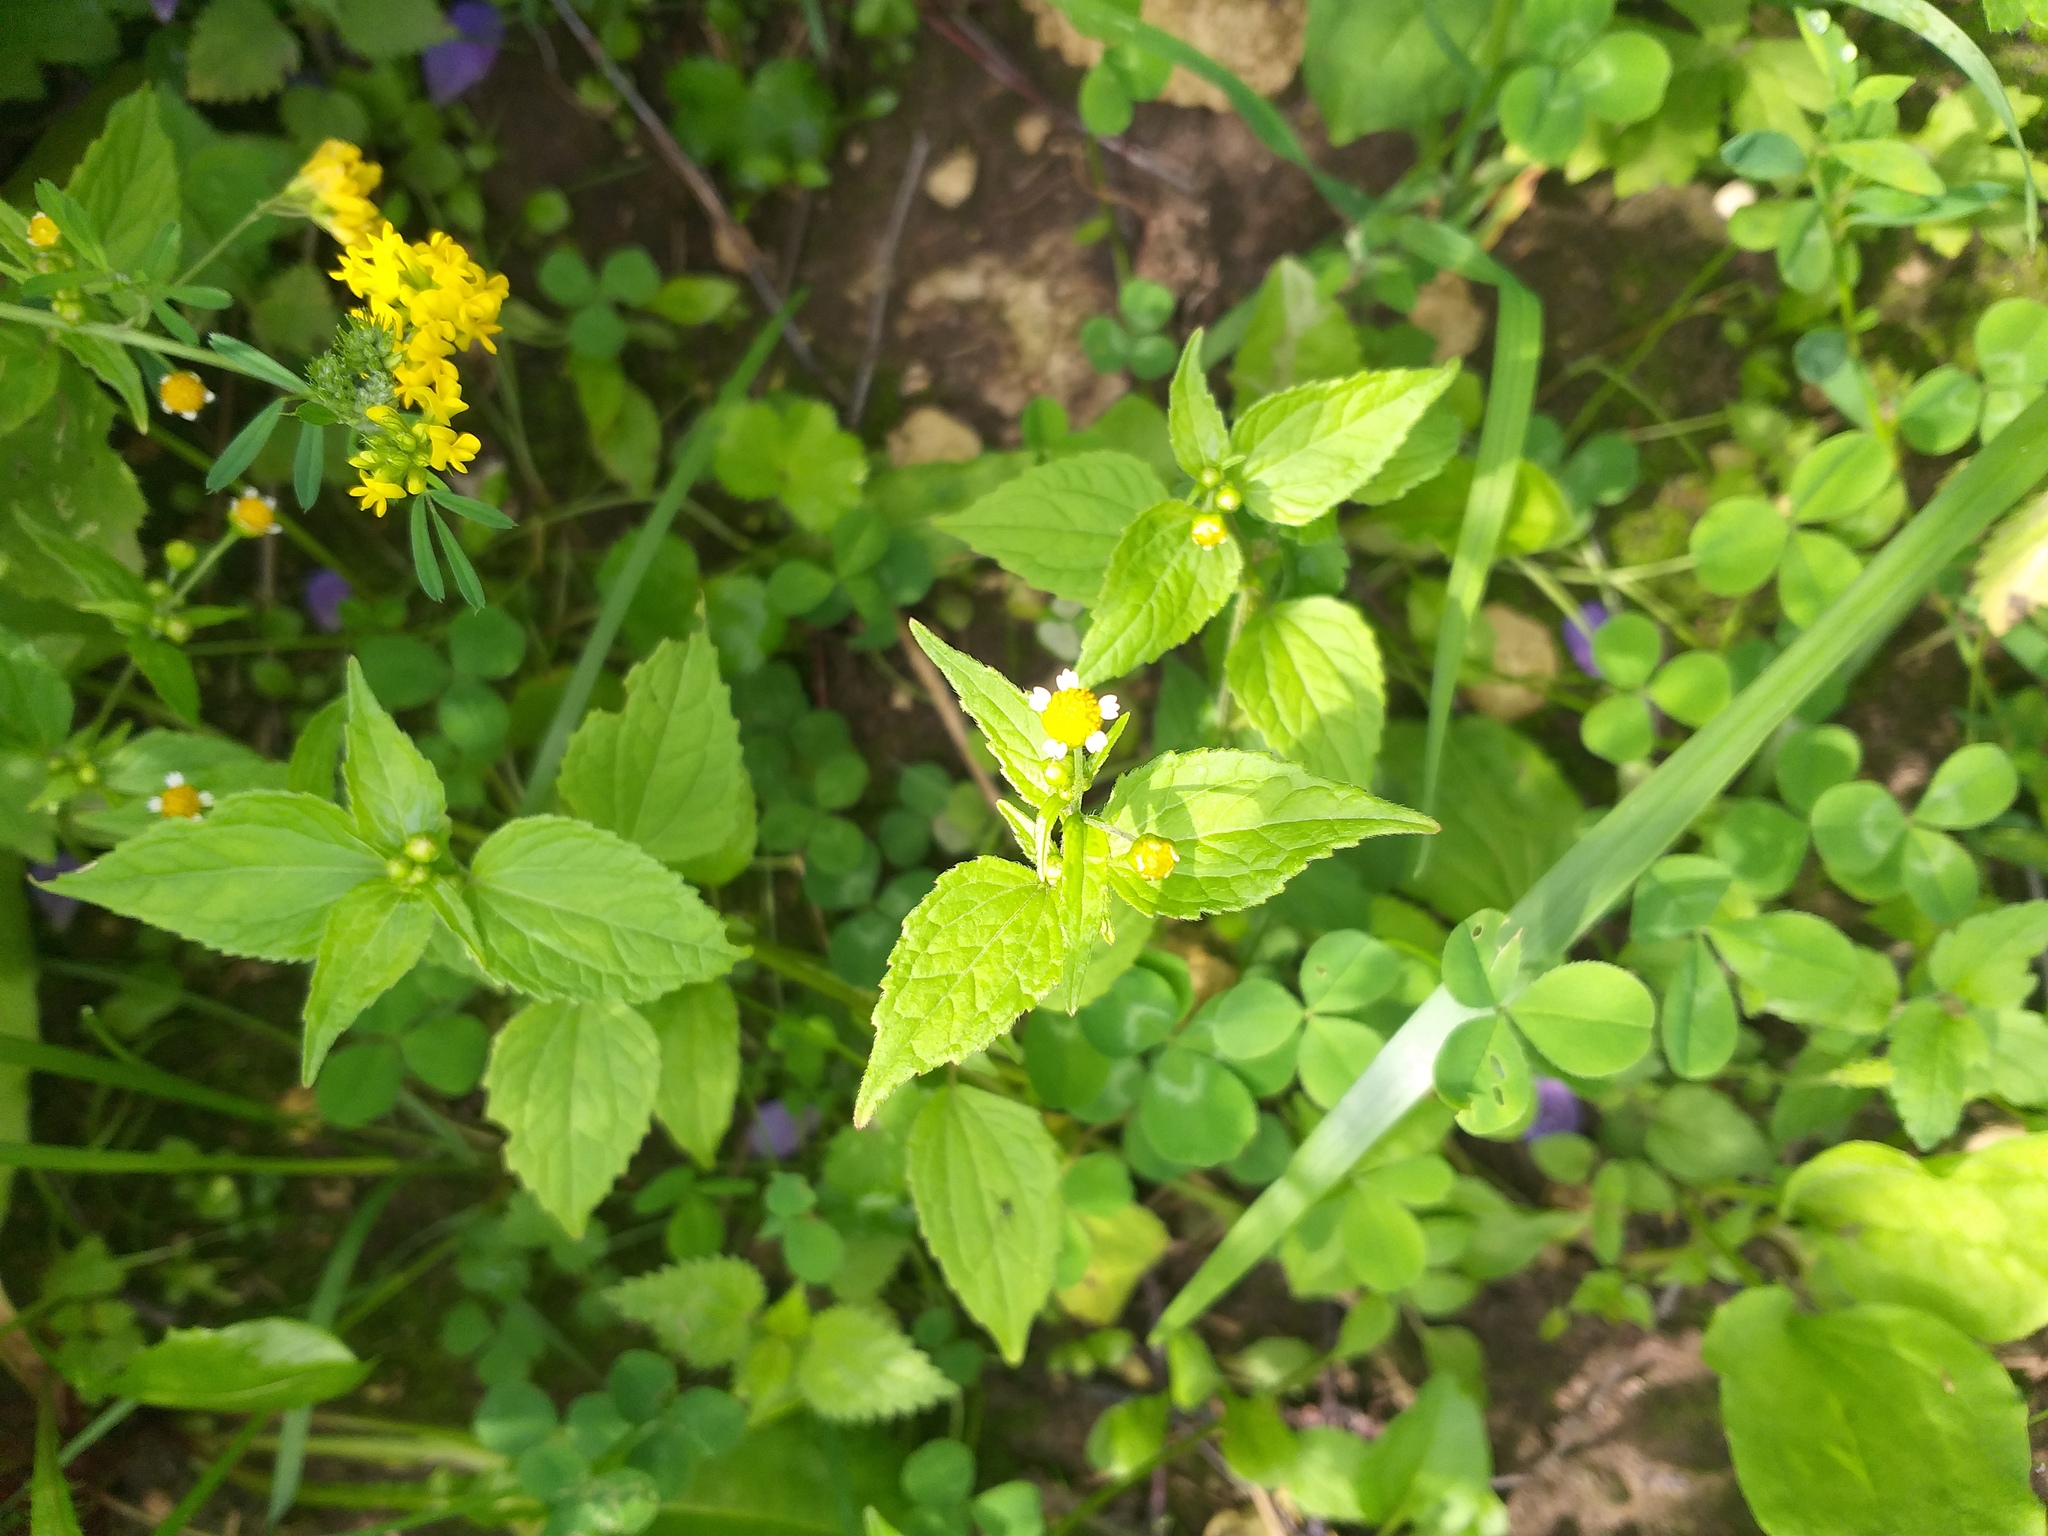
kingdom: Plantae
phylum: Tracheophyta
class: Magnoliopsida
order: Asterales
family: Asteraceae
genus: Galinsoga
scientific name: Galinsoga parviflora
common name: Gallant soldier
